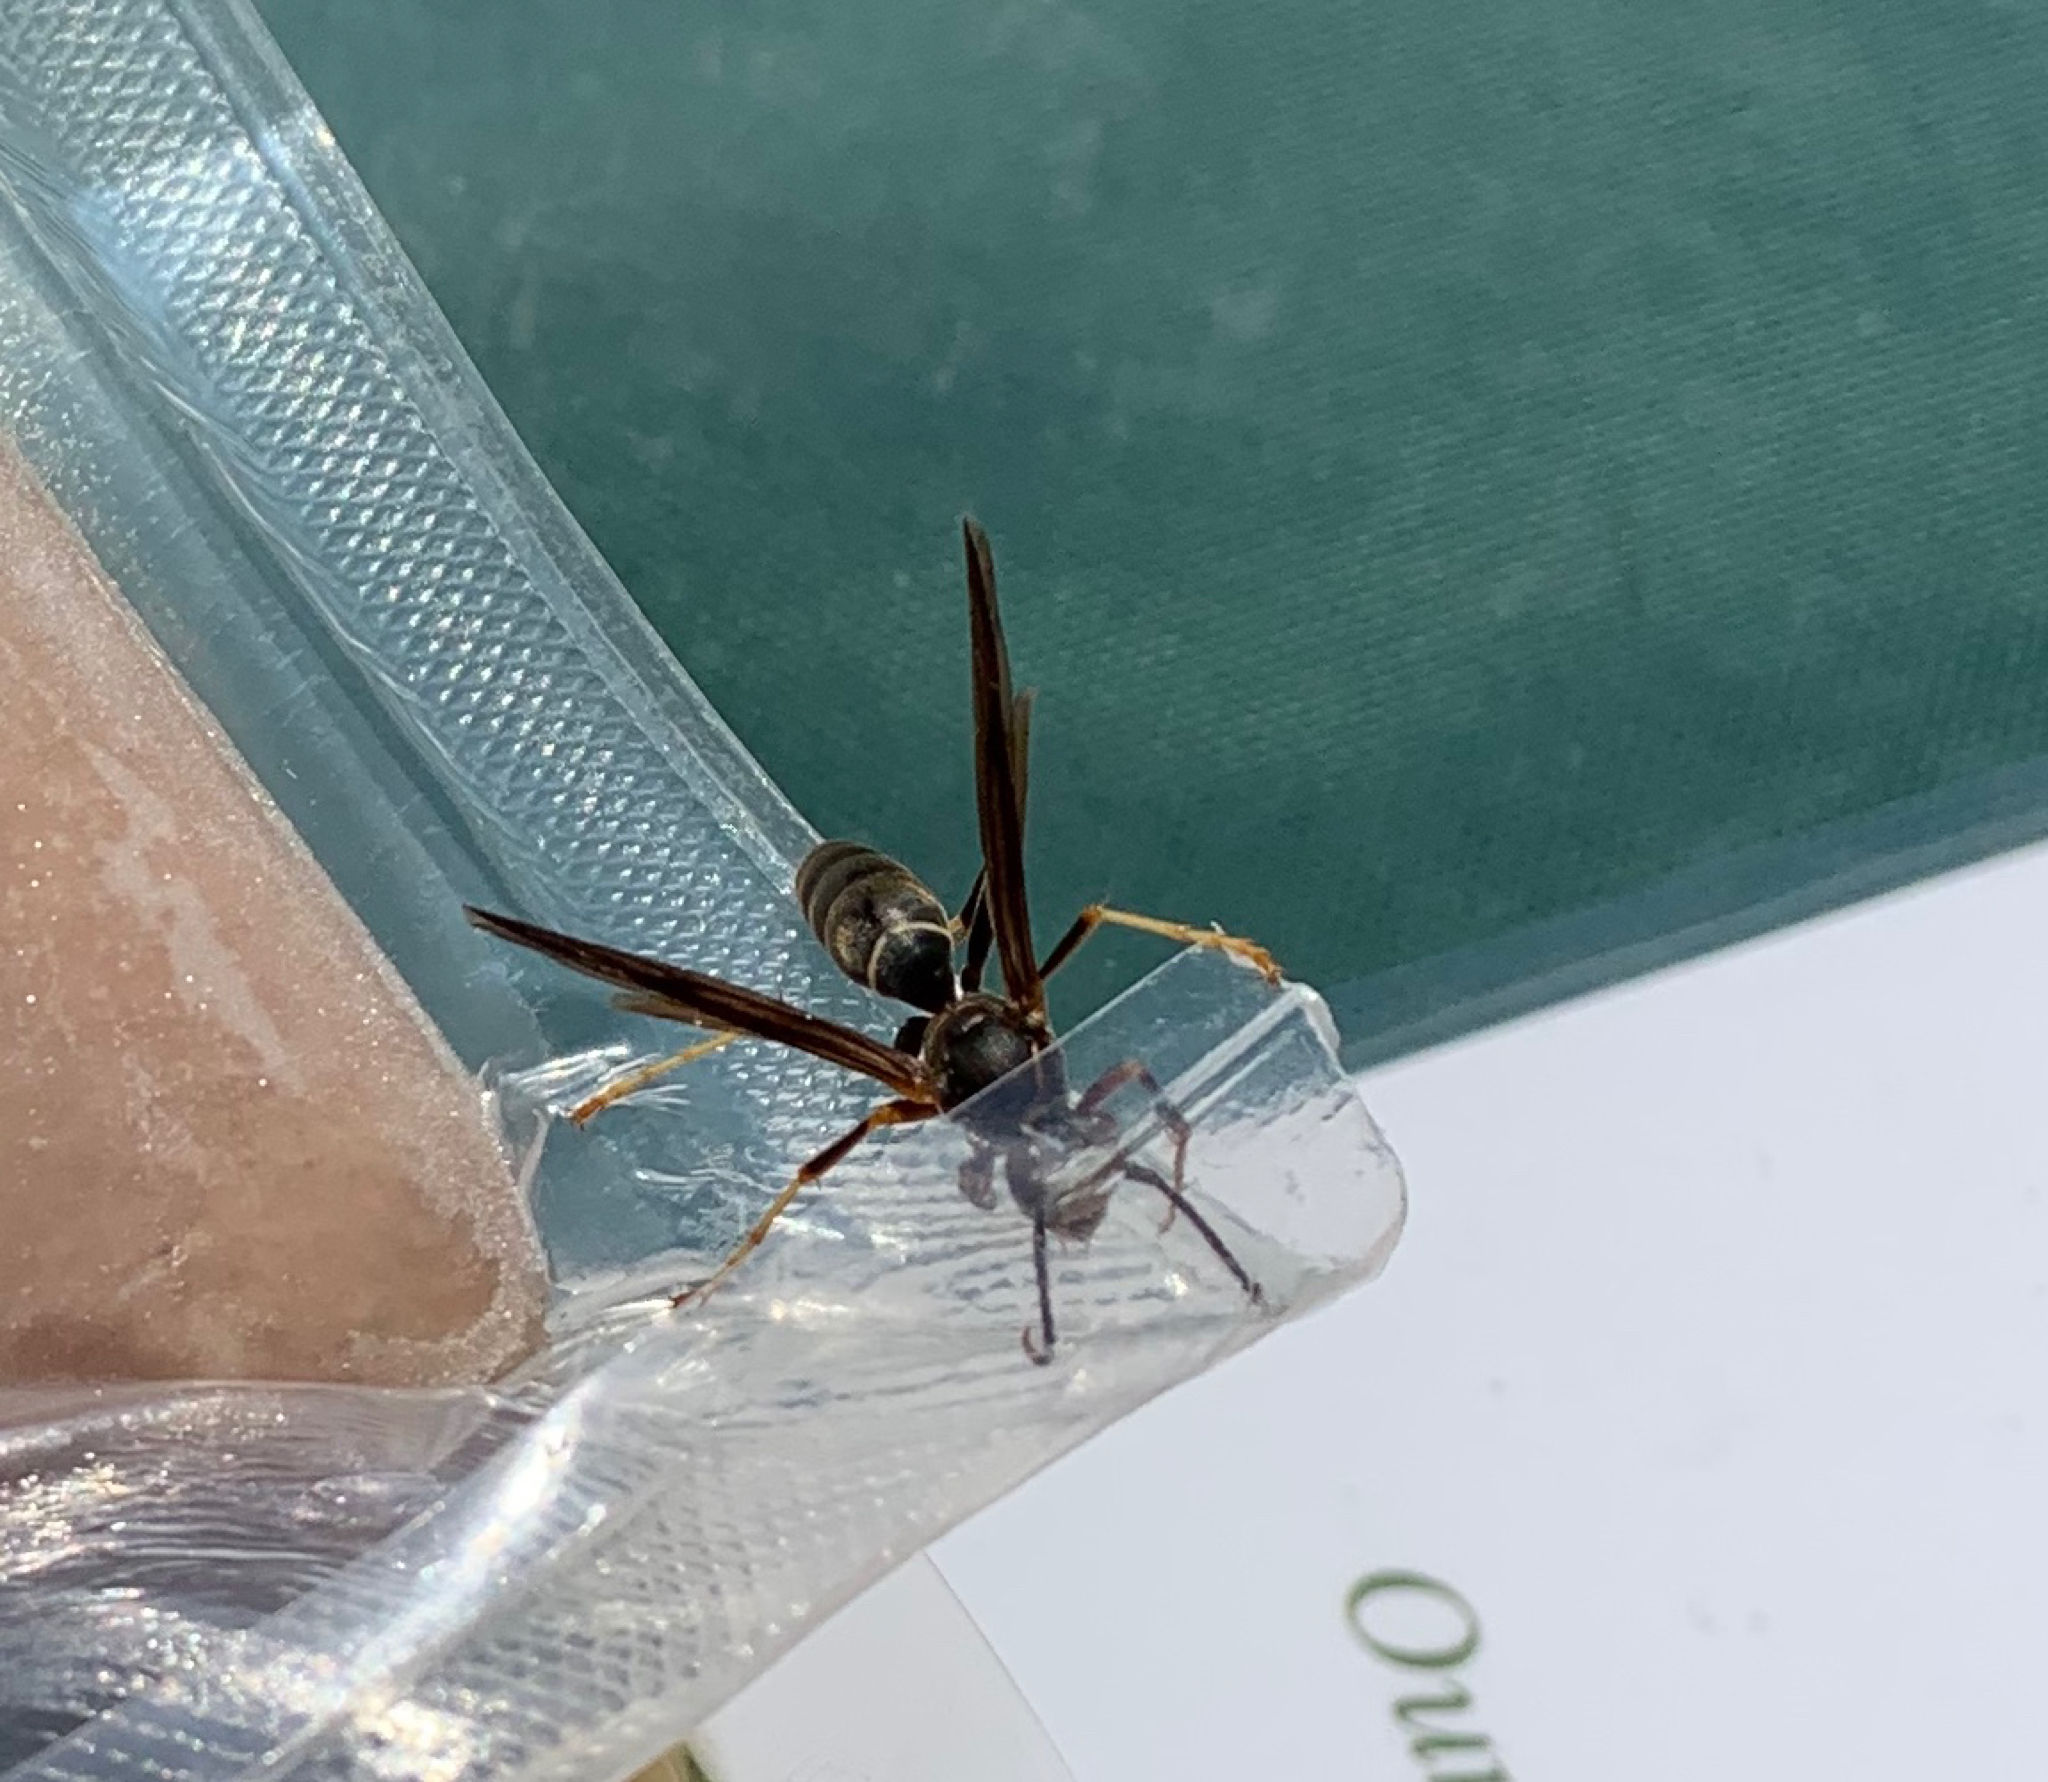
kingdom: Animalia
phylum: Arthropoda
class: Insecta
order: Hymenoptera
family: Eumenidae
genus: Polistes
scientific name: Polistes fuscatus
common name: Dark paper wasp
